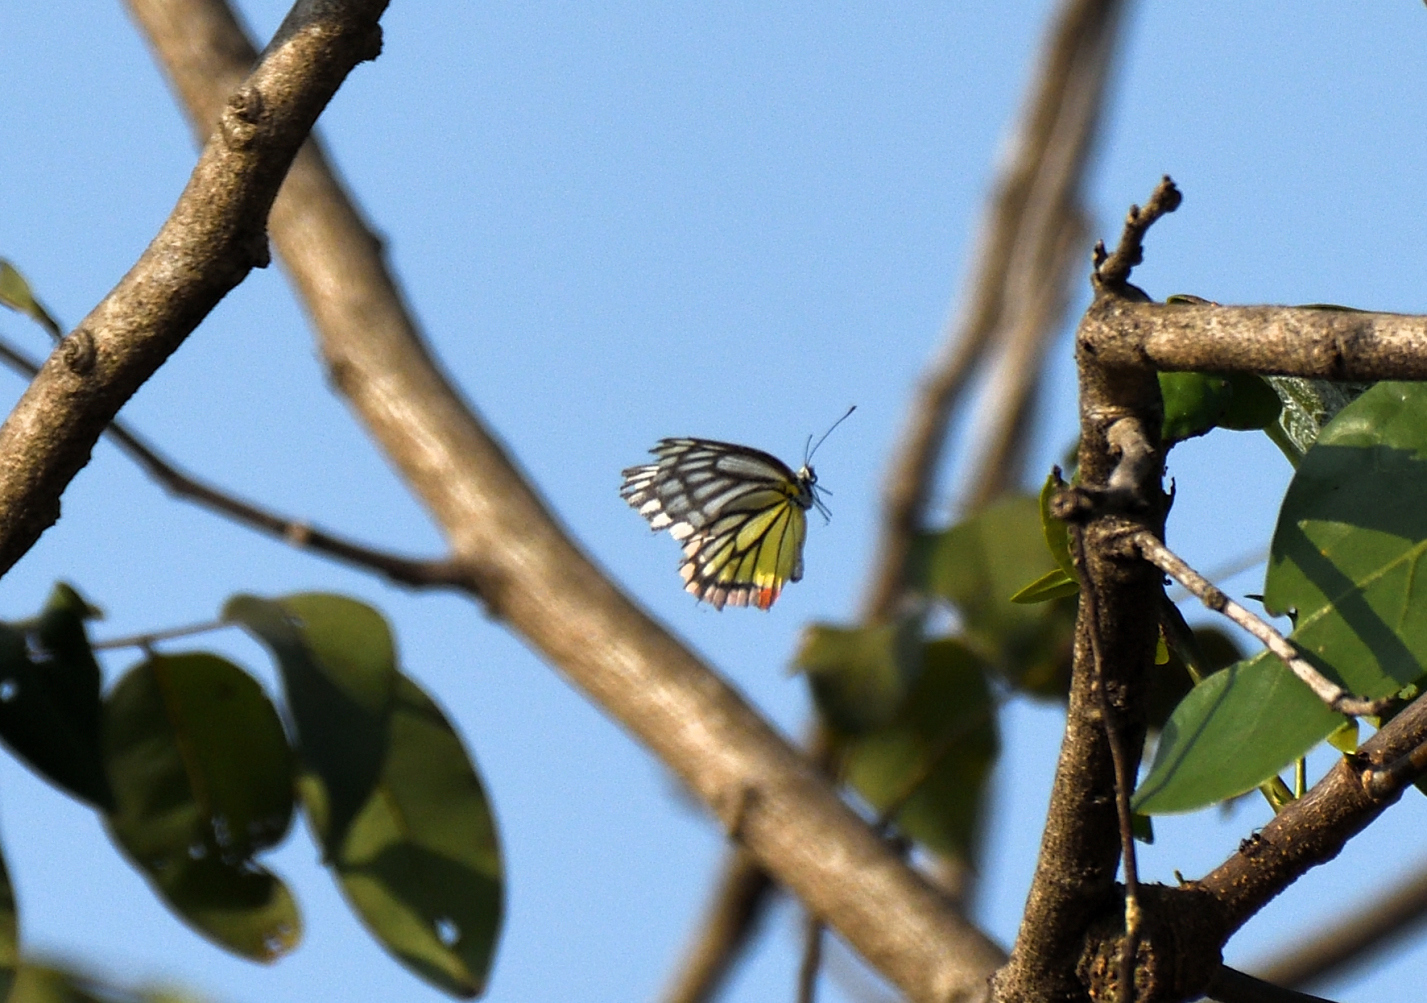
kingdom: Animalia
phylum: Arthropoda
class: Insecta
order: Lepidoptera
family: Pieridae
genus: Delias
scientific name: Delias eucharis
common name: Common jezebel
